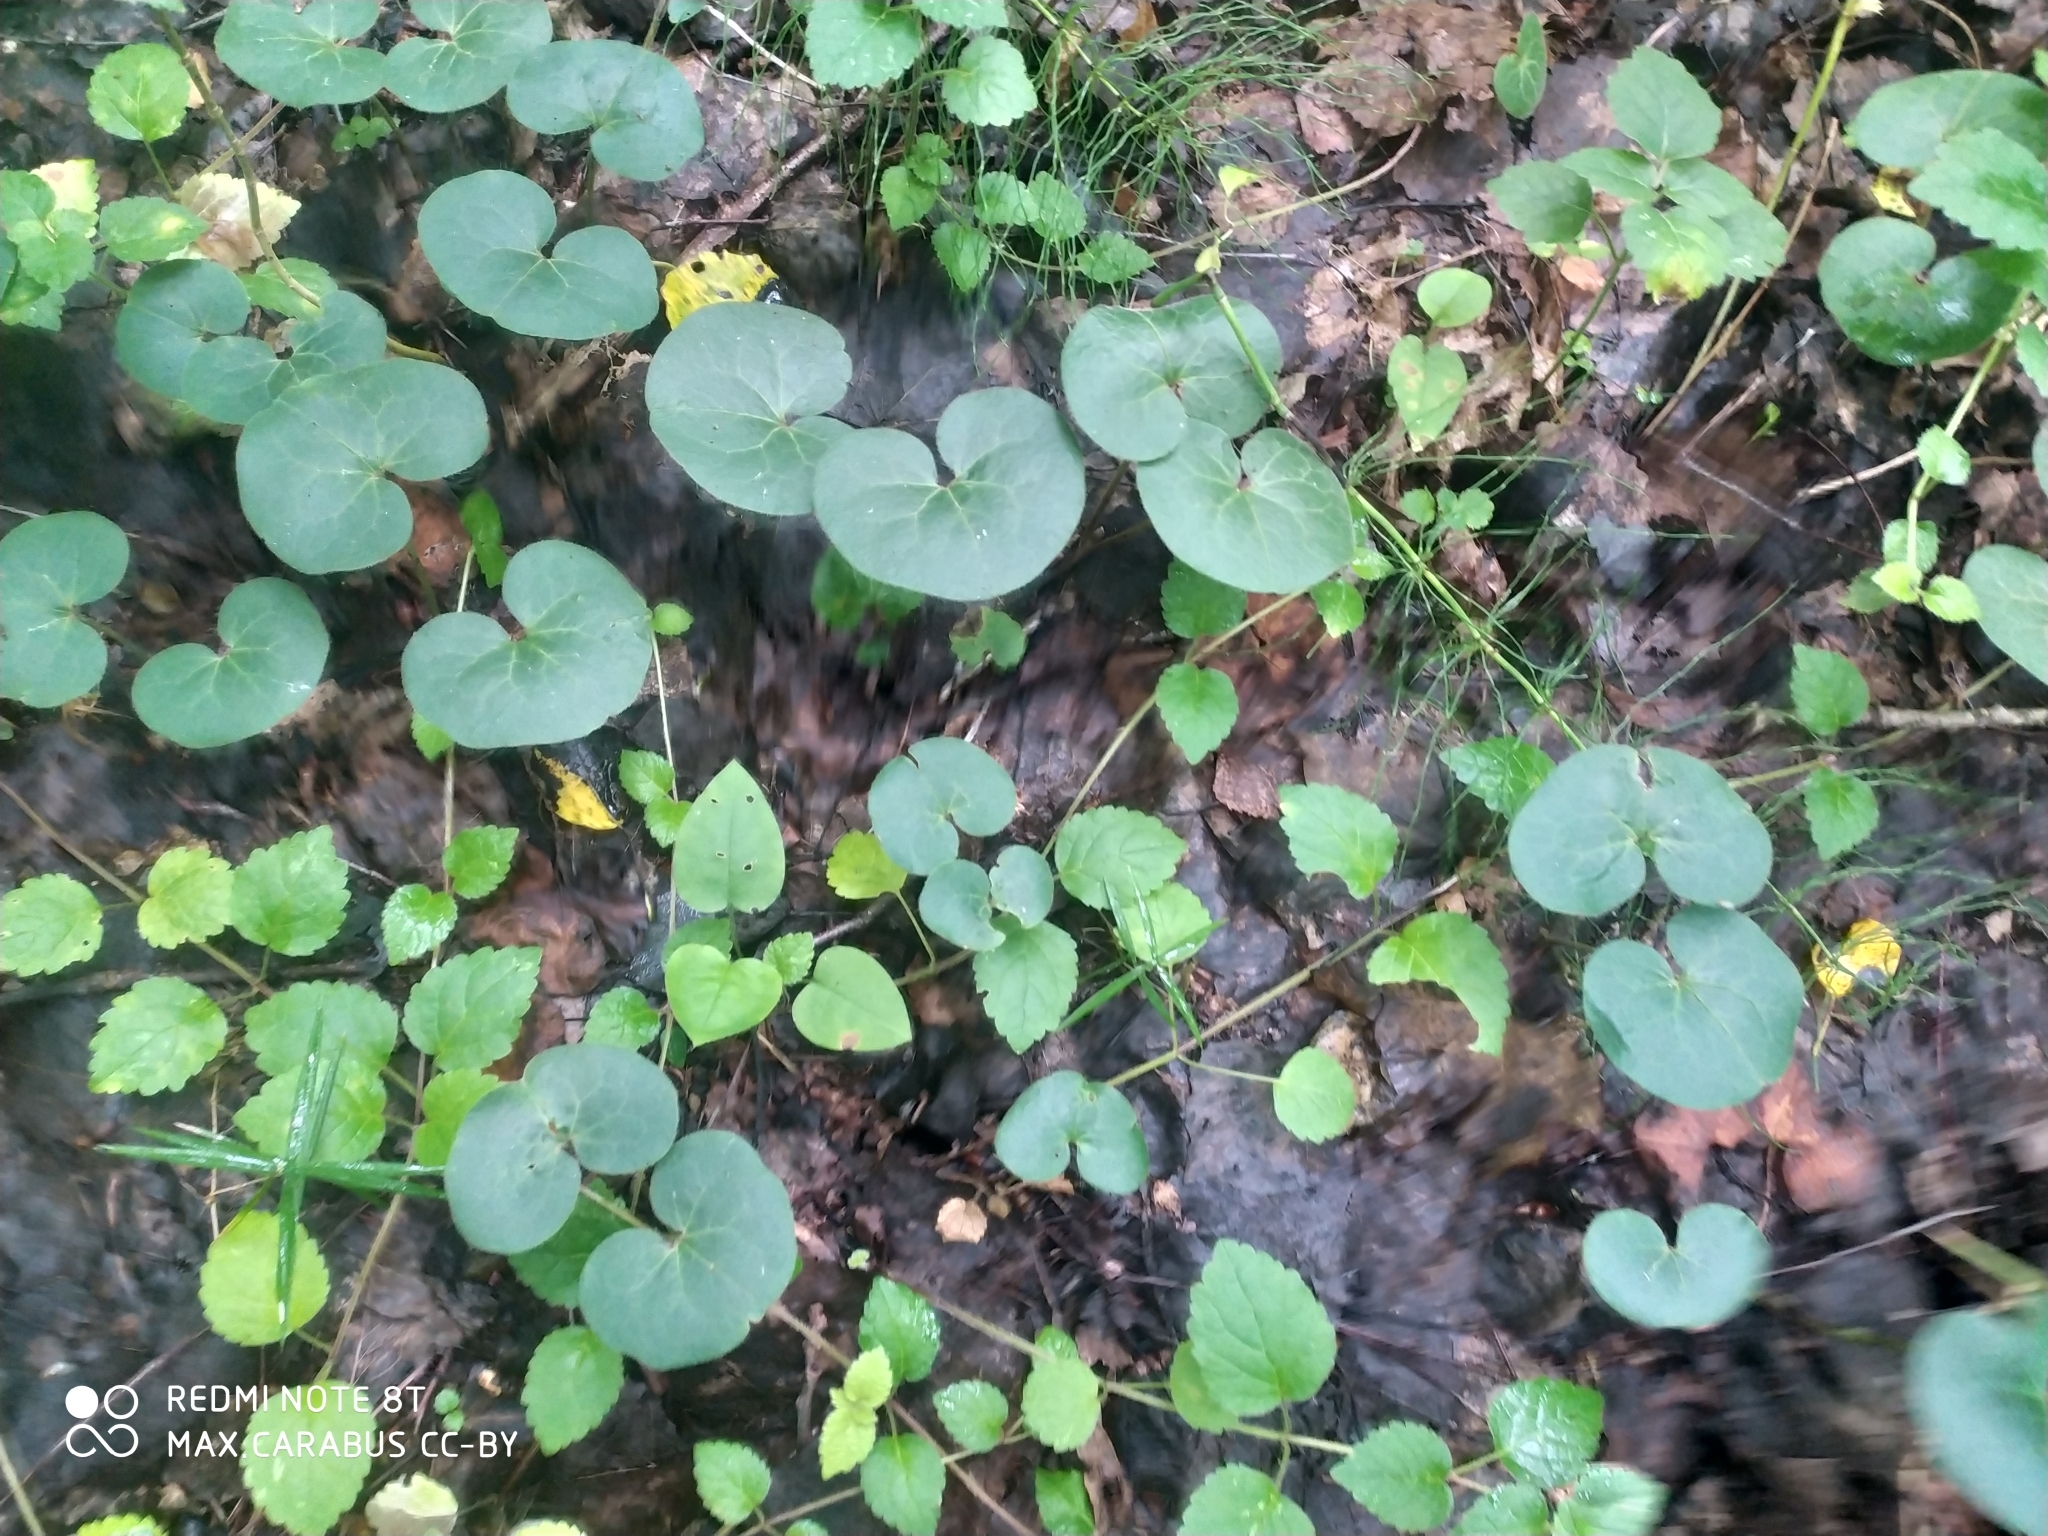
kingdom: Plantae
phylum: Tracheophyta
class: Magnoliopsida
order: Piperales
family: Aristolochiaceae
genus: Asarum
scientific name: Asarum europaeum
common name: Asarabacca
